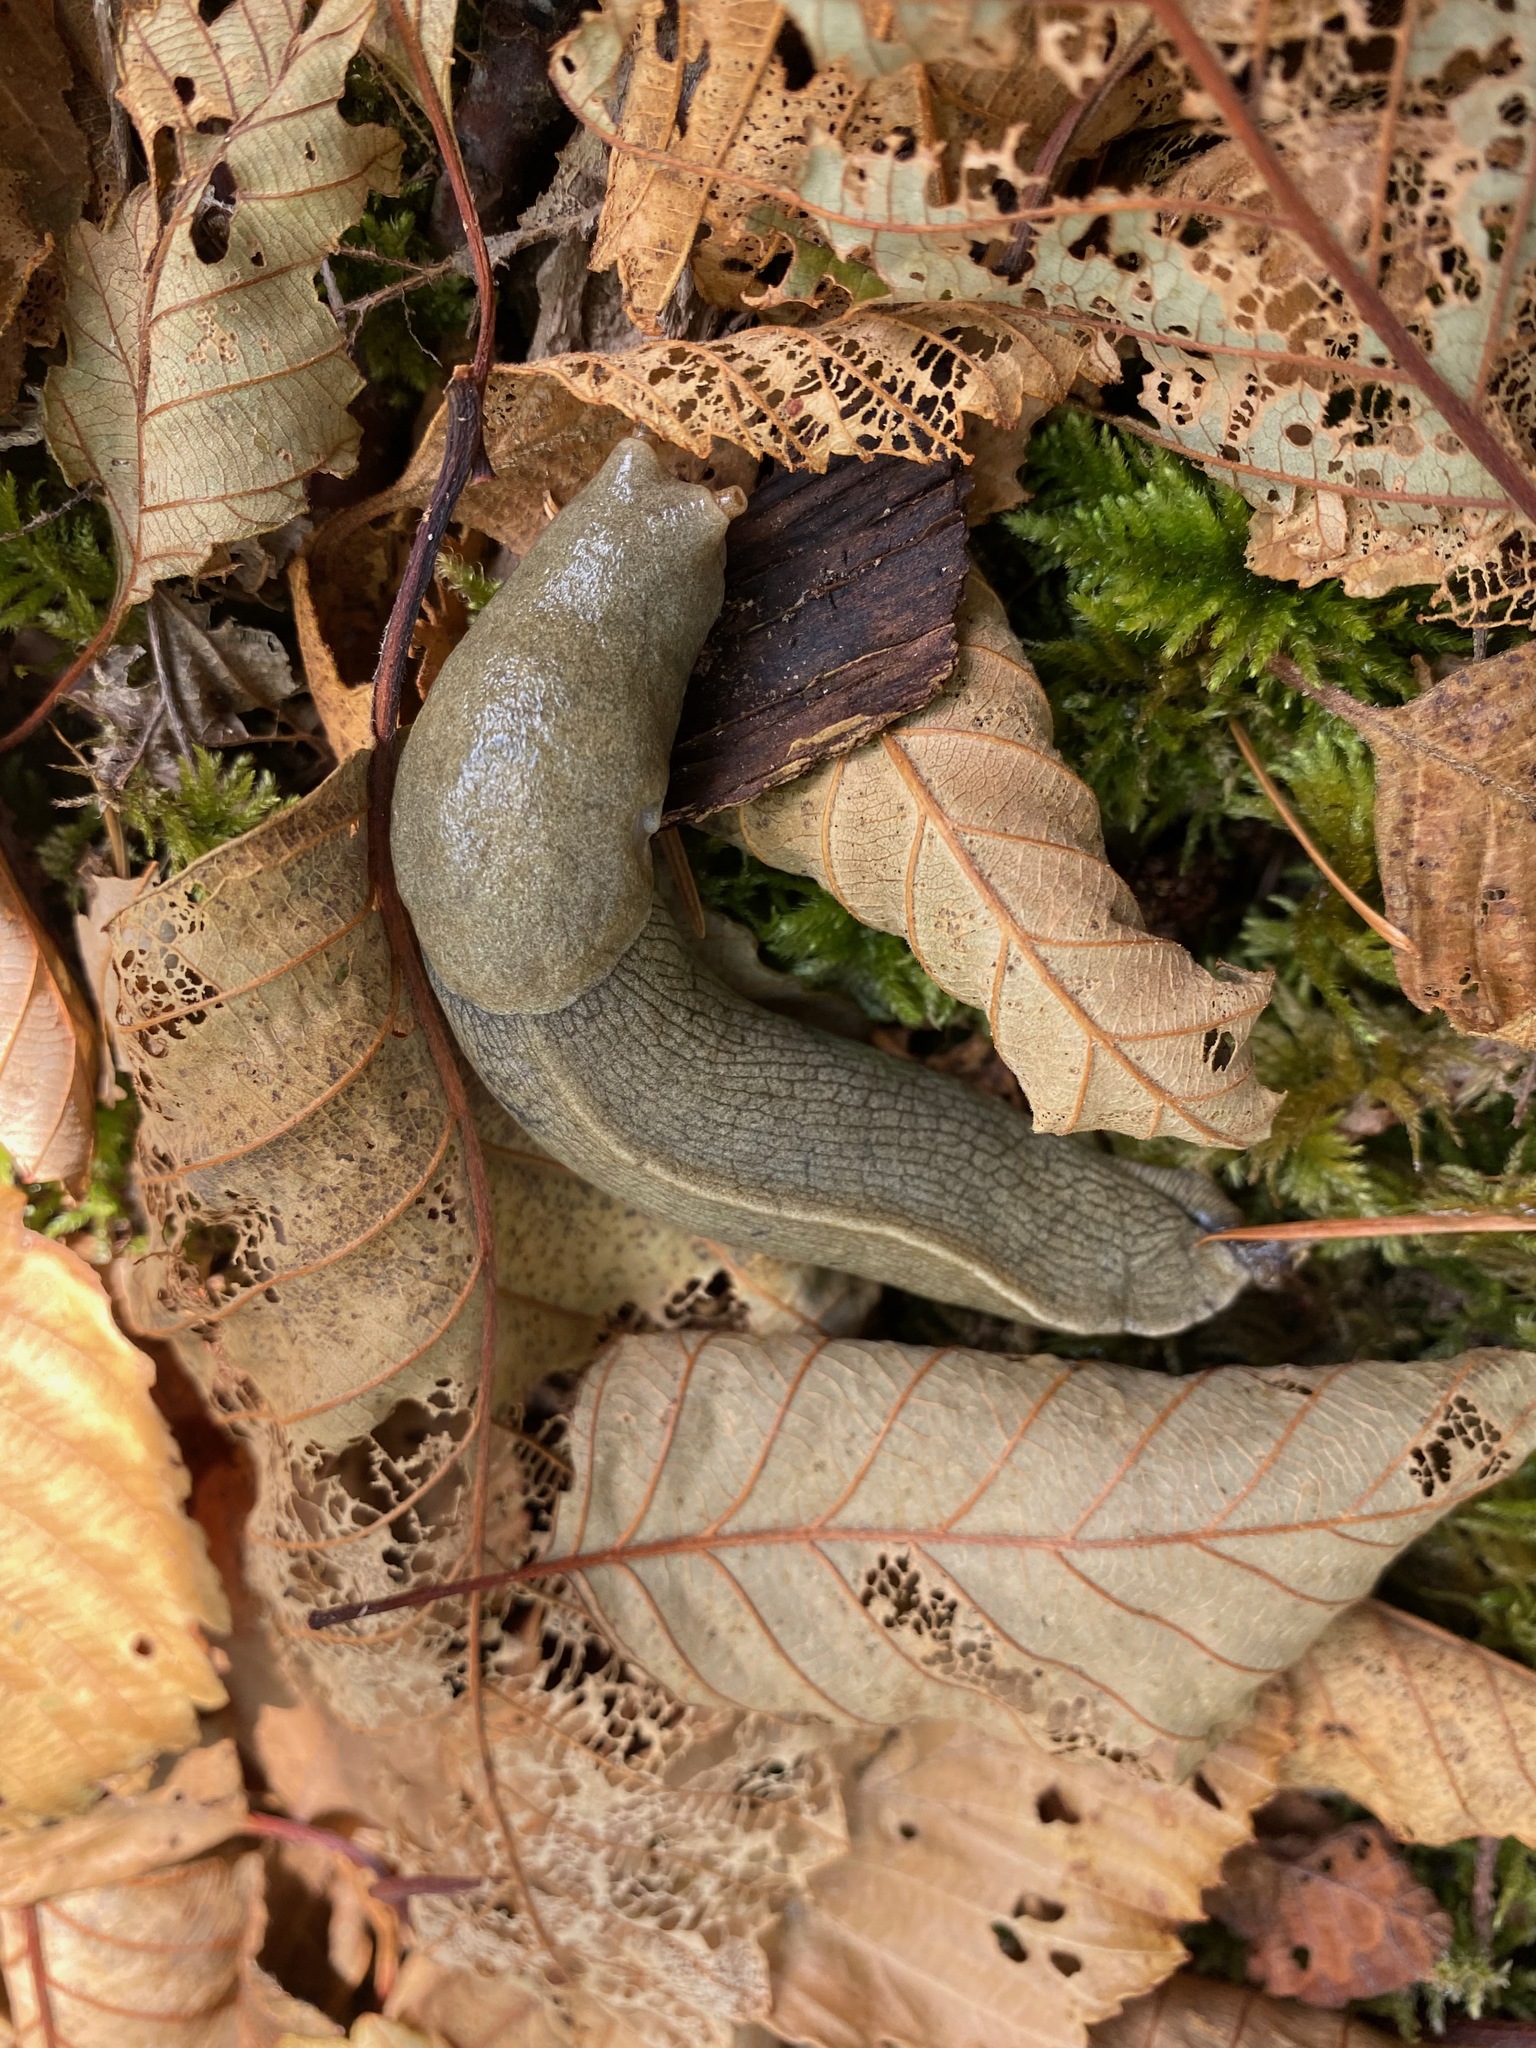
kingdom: Animalia
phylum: Mollusca
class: Gastropoda
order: Stylommatophora
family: Ariolimacidae
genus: Ariolimax
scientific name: Ariolimax columbianus
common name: Pacific banana slug
